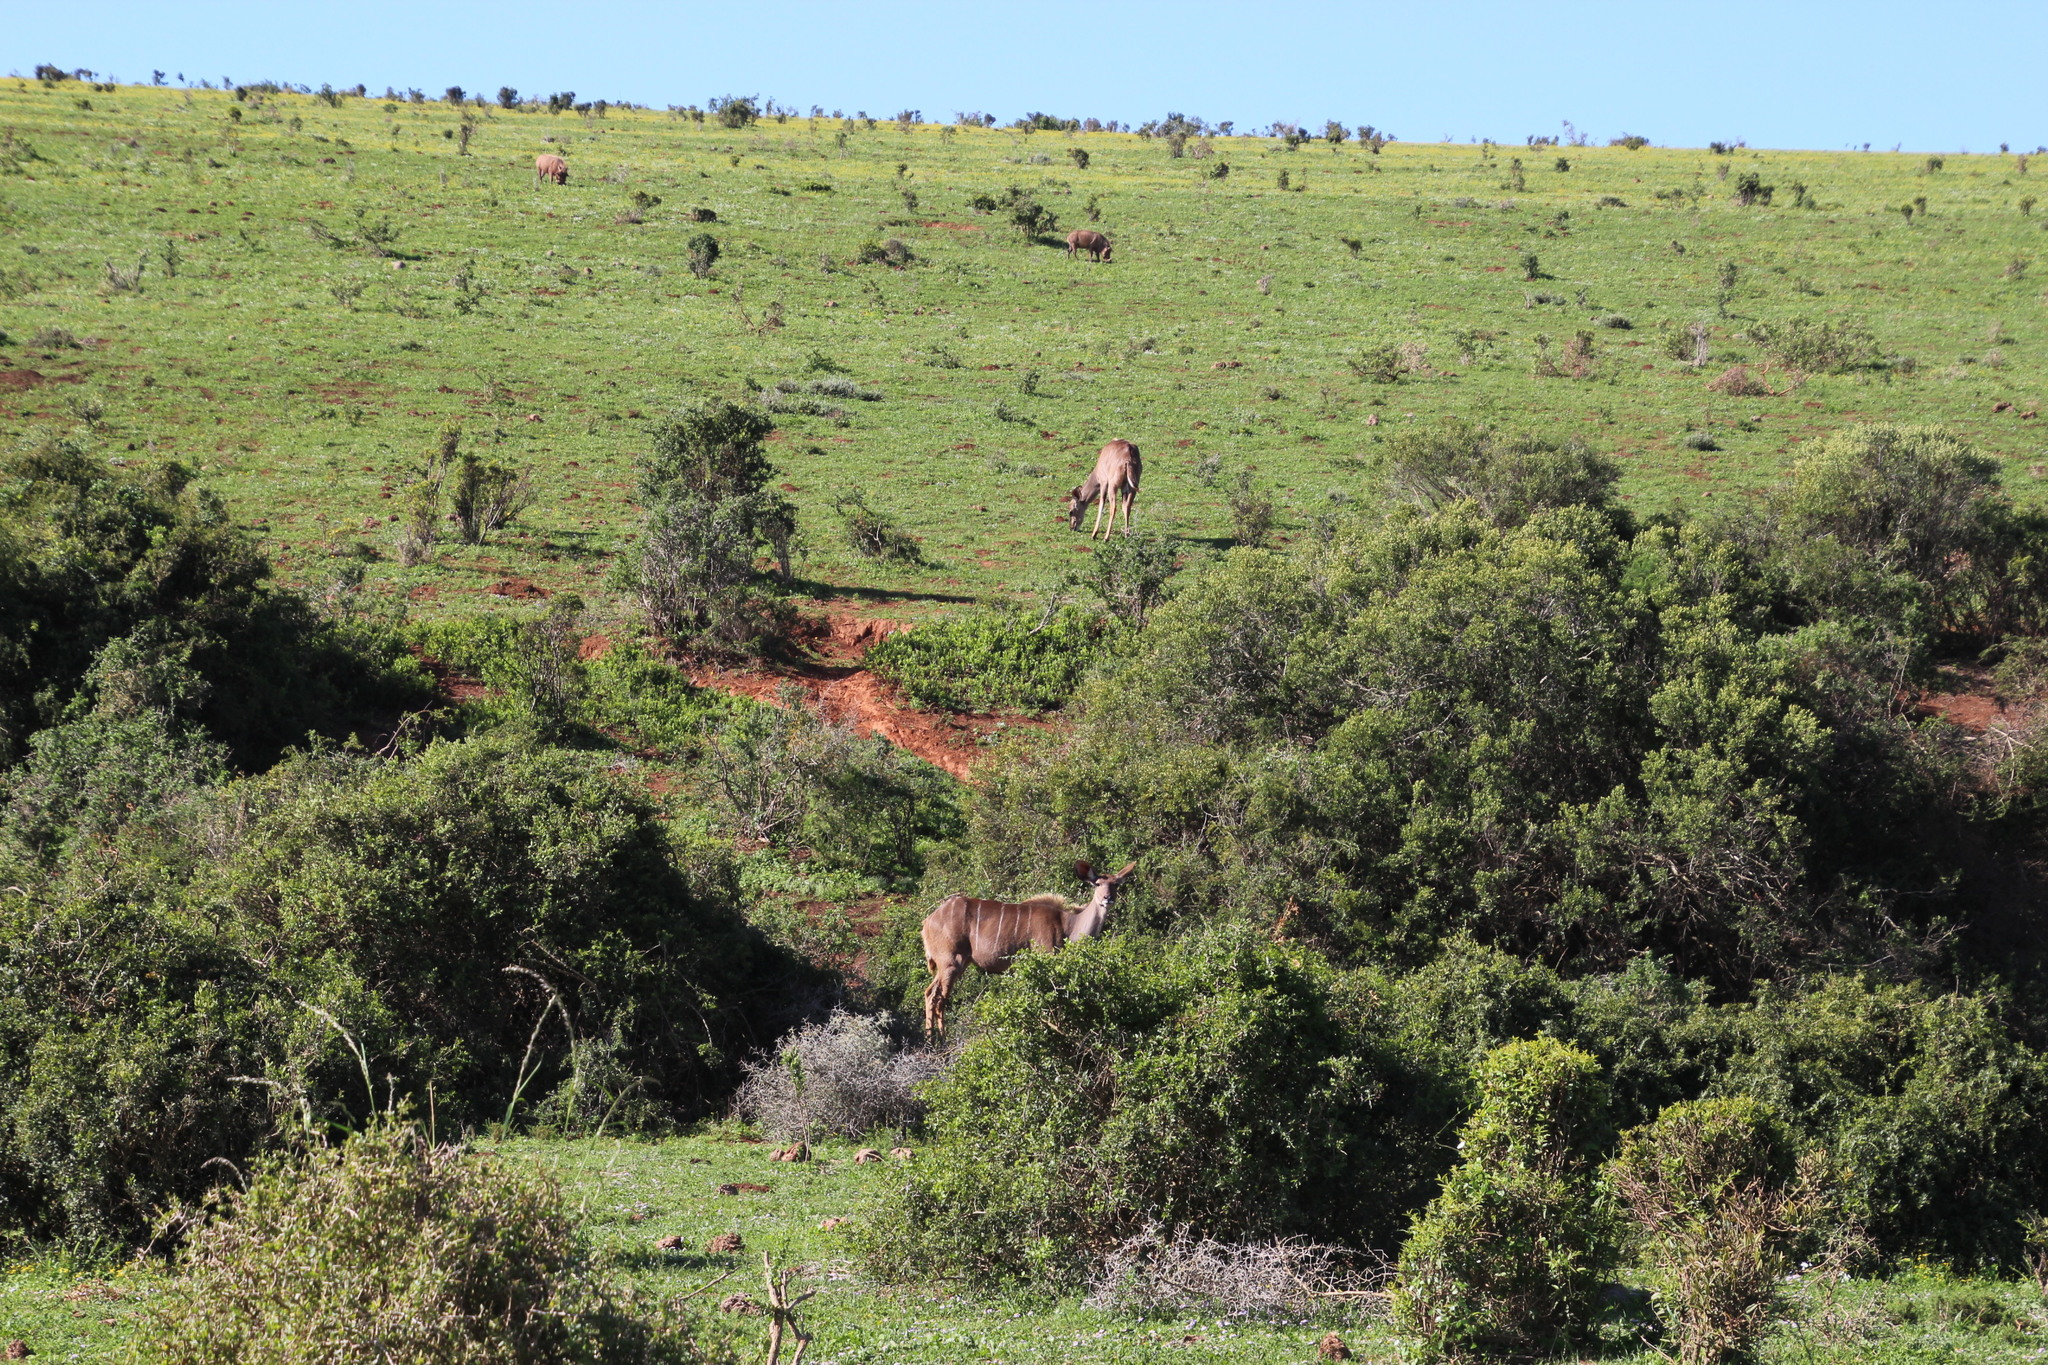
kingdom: Animalia
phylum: Chordata
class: Mammalia
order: Artiodactyla
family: Bovidae
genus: Tragelaphus
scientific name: Tragelaphus strepsiceros
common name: Greater kudu
